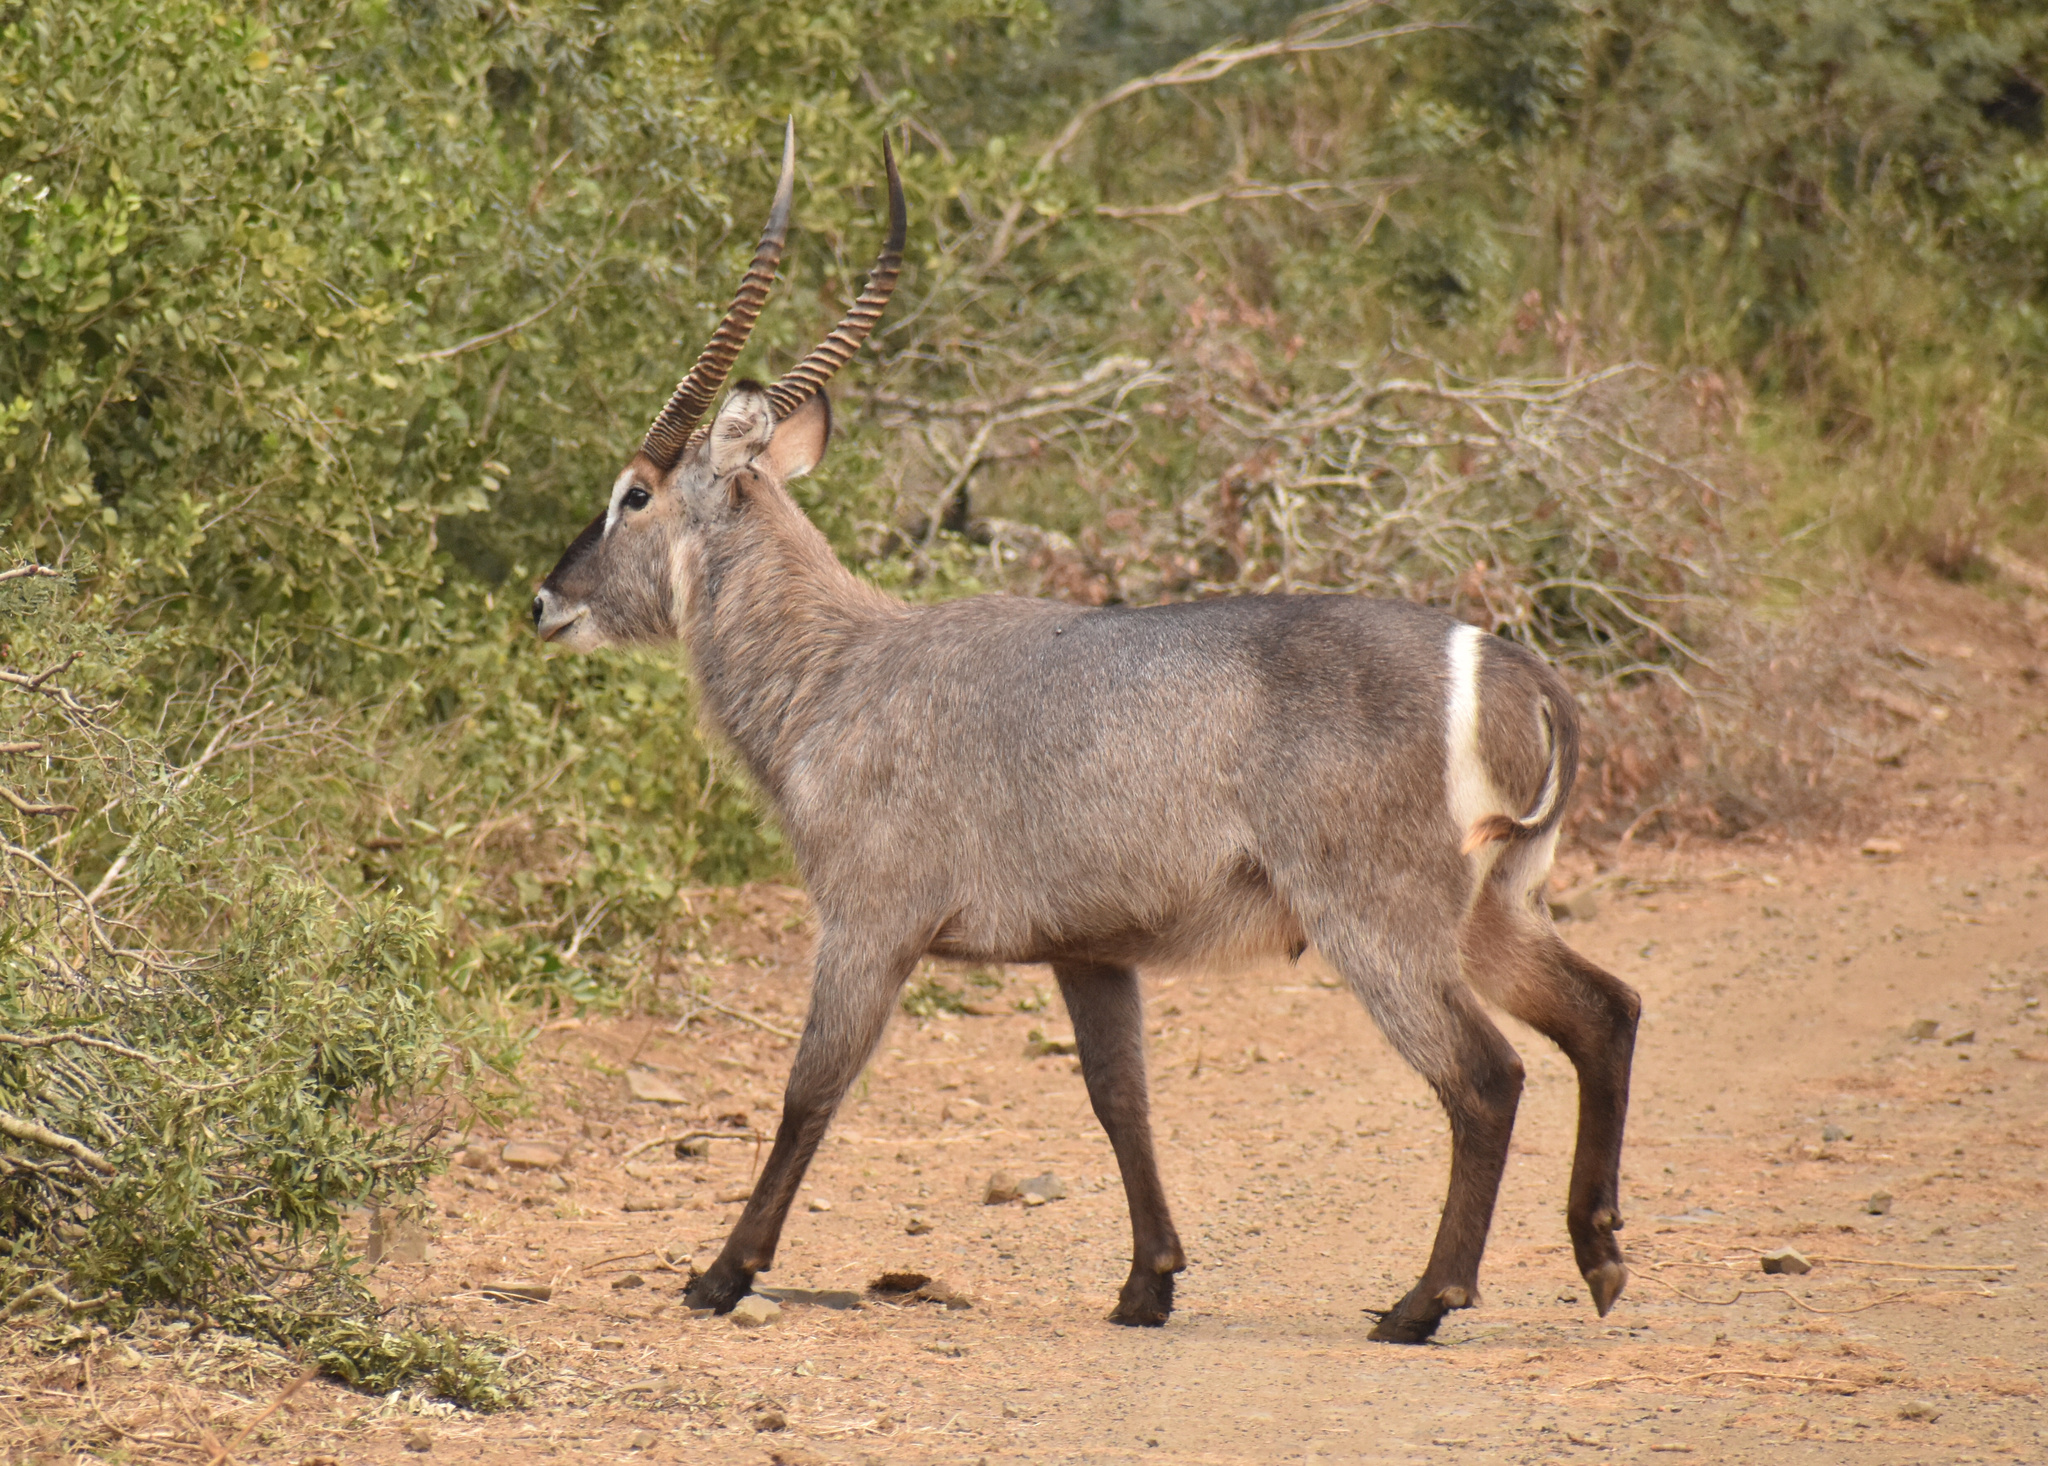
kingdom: Animalia
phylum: Chordata
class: Mammalia
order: Artiodactyla
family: Bovidae
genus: Kobus
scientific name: Kobus ellipsiprymnus
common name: Waterbuck
